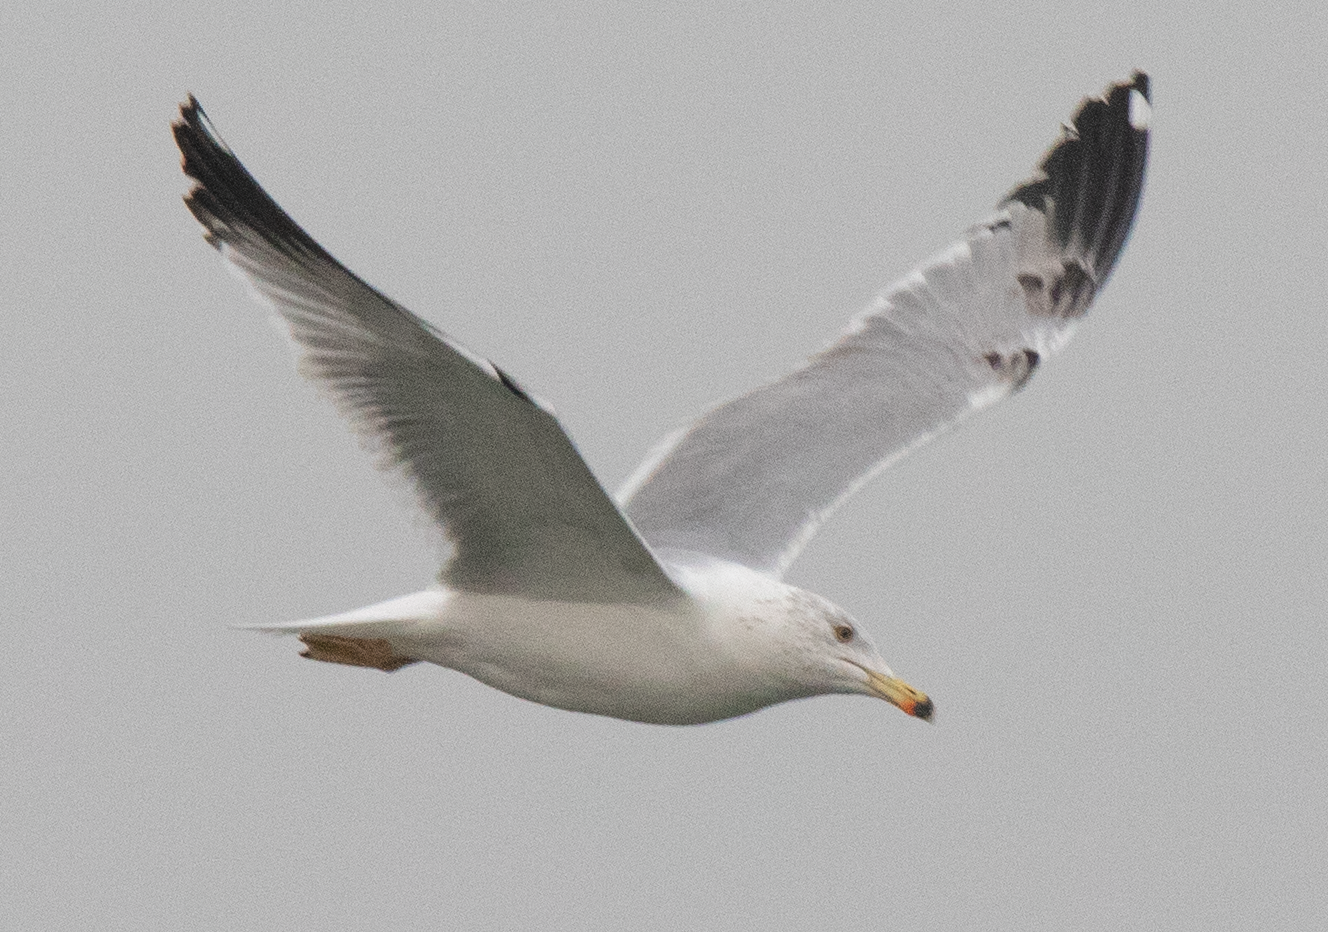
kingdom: Animalia
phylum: Chordata
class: Aves
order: Charadriiformes
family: Laridae
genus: Larus
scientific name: Larus michahellis
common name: Yellow-legged gull
